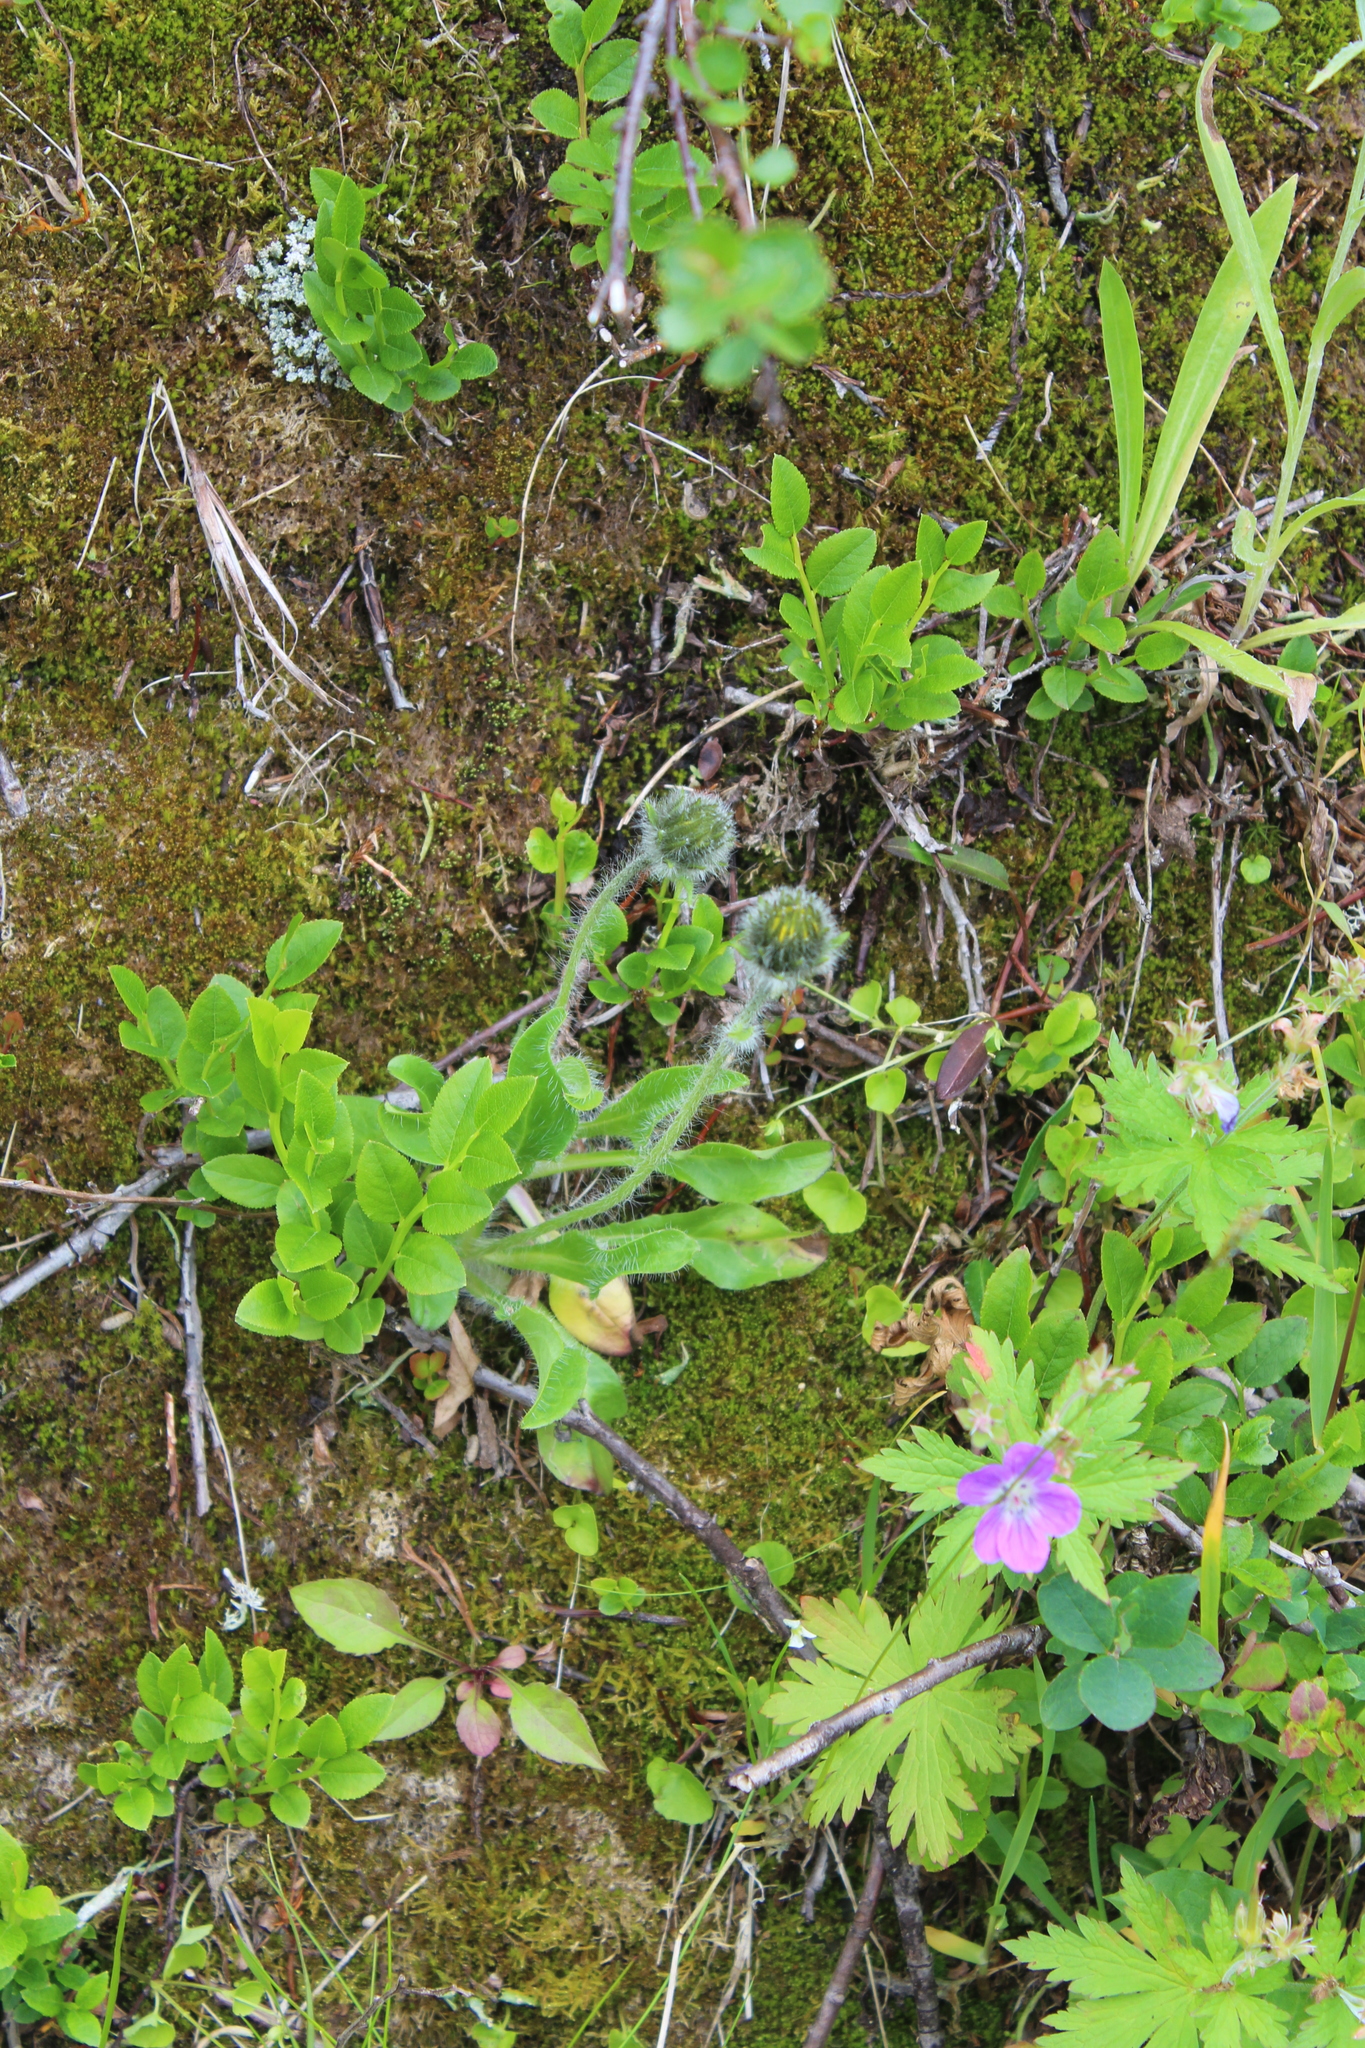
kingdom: Plantae
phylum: Tracheophyta
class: Magnoliopsida
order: Asterales
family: Asteraceae
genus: Hieracium
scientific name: Hieracium alpinum
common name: Alpine hawkweed
